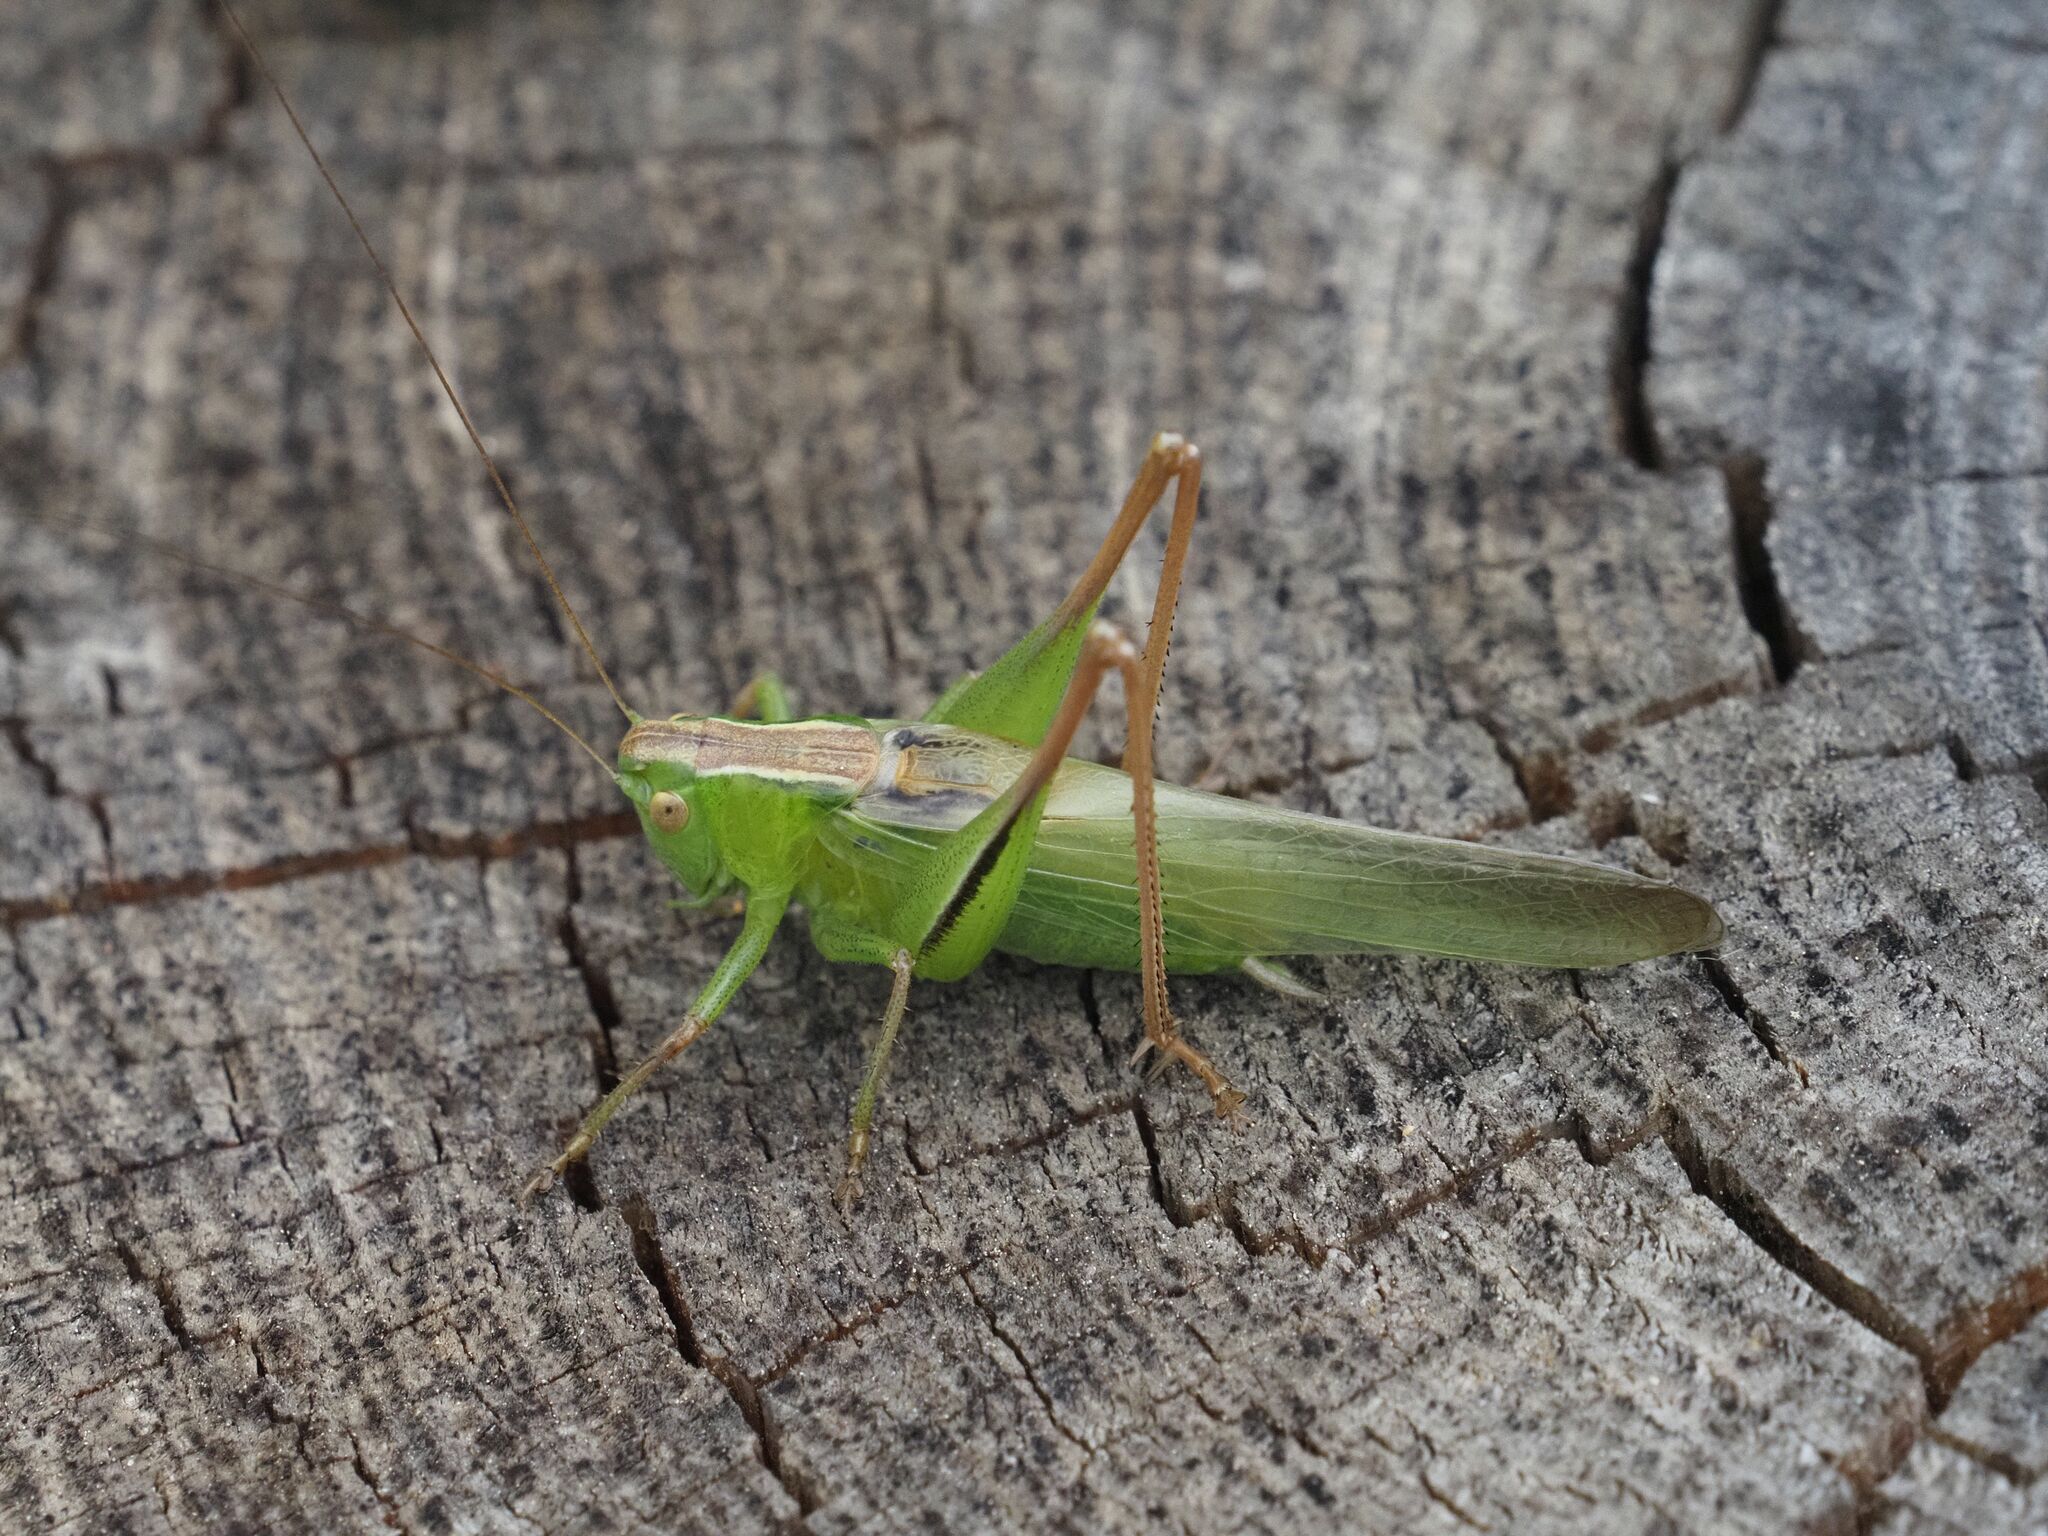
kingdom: Animalia
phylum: Arthropoda
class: Insecta
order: Orthoptera
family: Tettigoniidae
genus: Bicolorana
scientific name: Bicolorana bicolor
